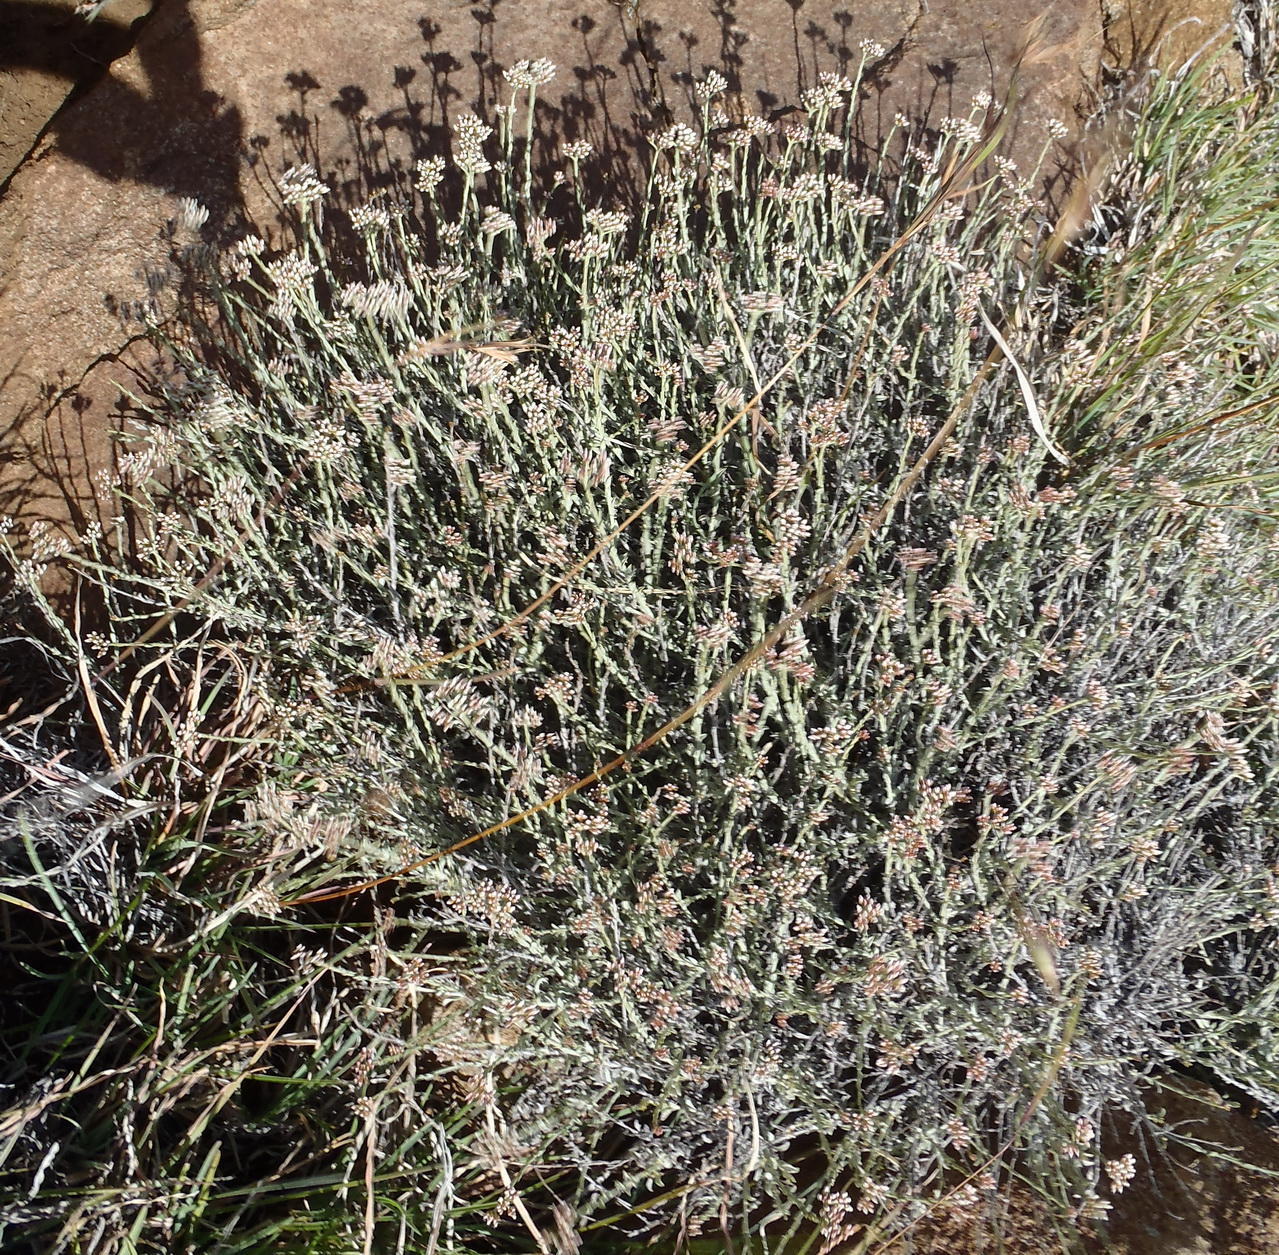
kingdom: Plantae
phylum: Tracheophyta
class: Magnoliopsida
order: Asterales
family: Asteraceae
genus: Helichrysum
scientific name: Helichrysum zeyheri
